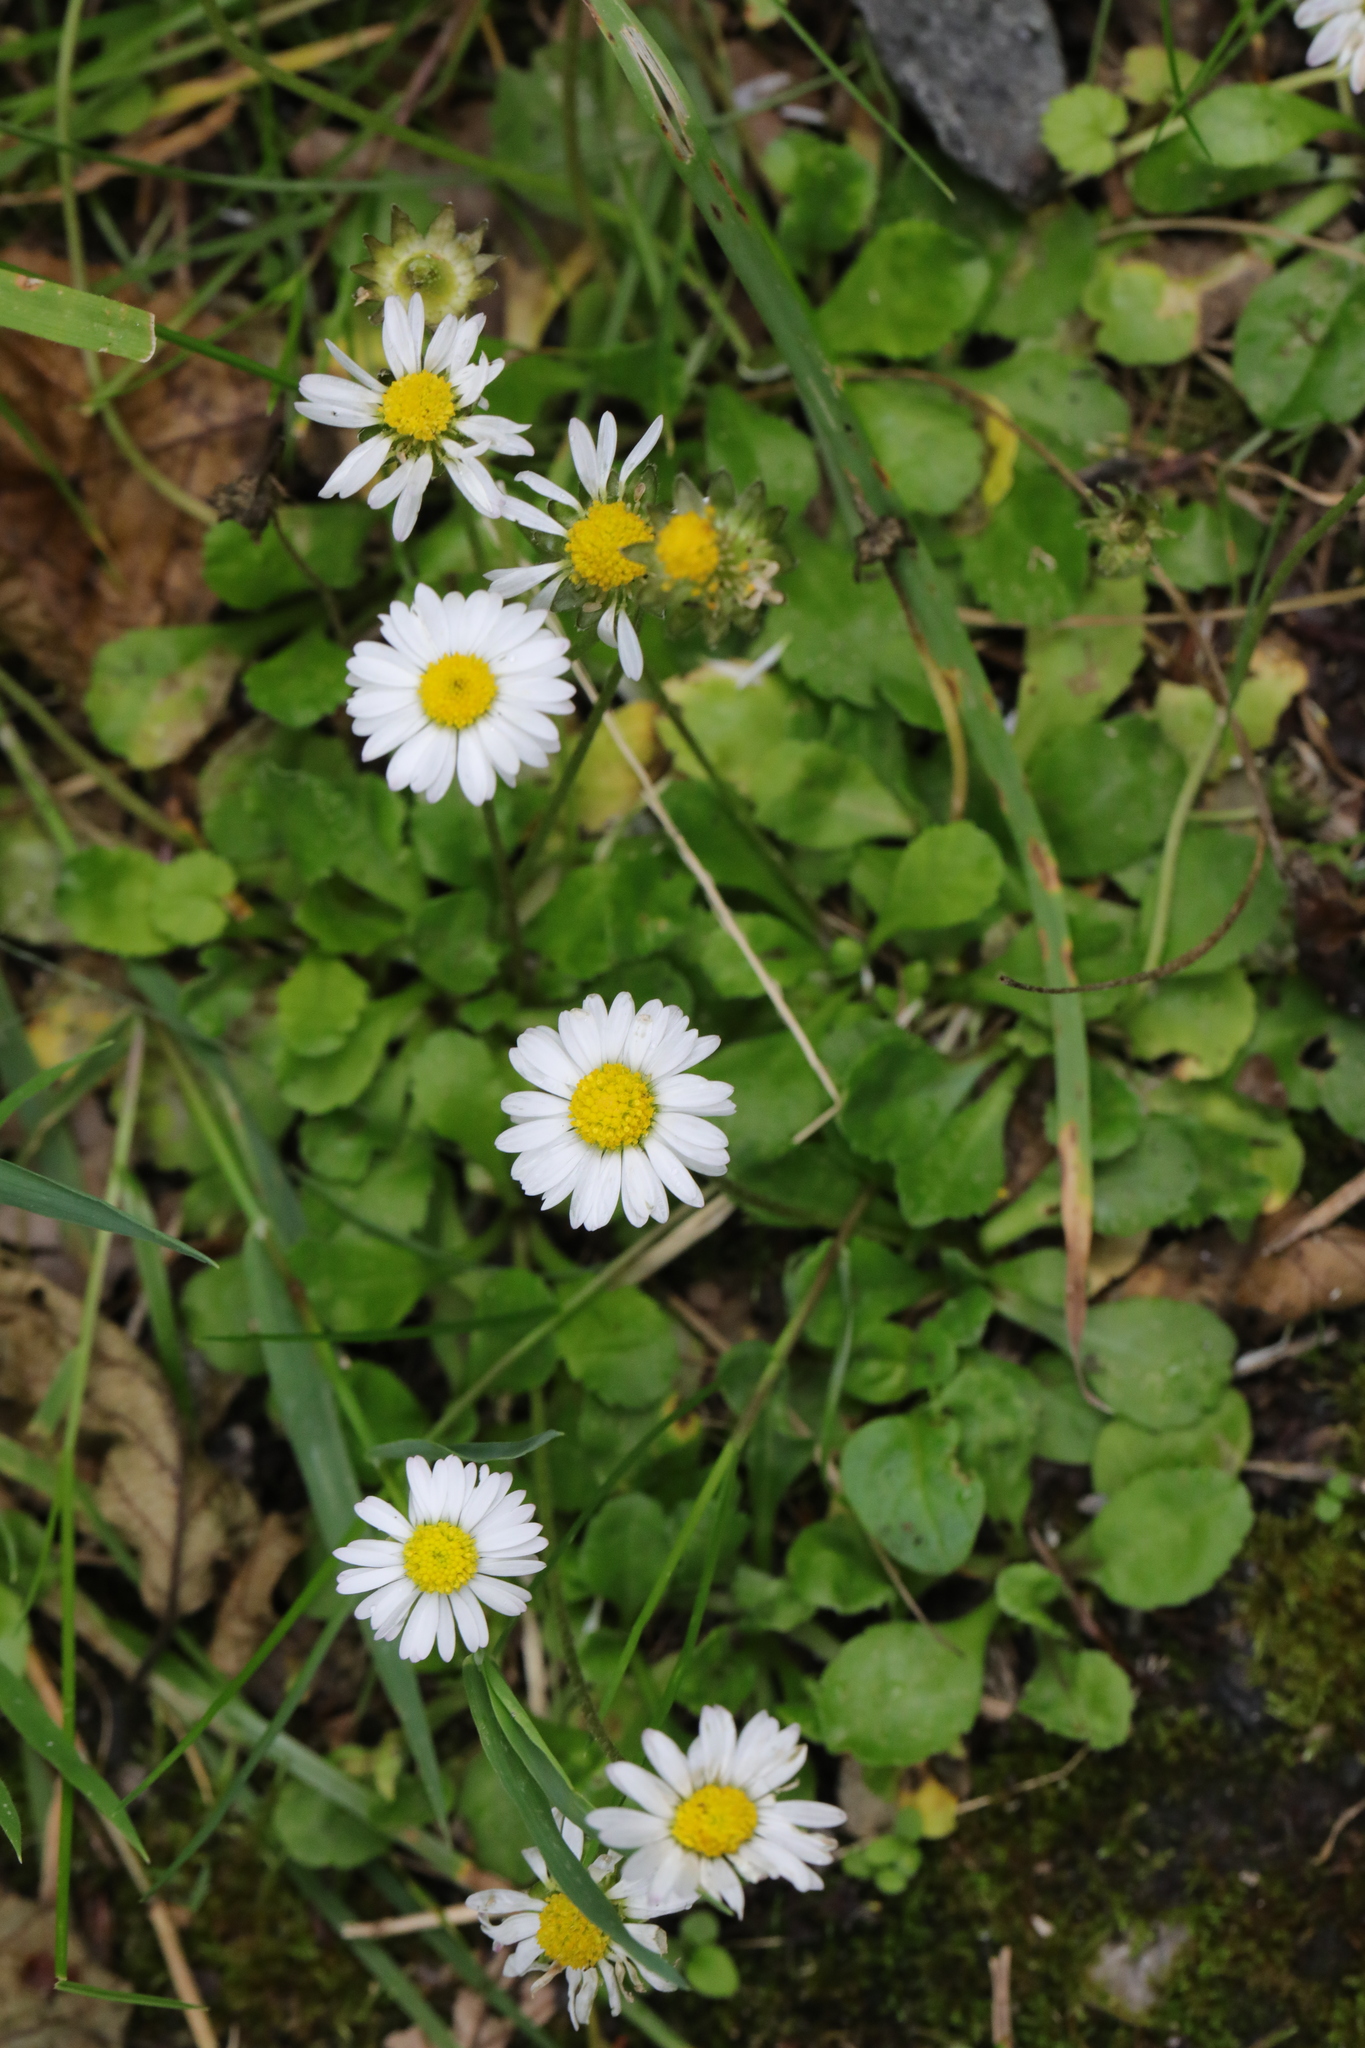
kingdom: Plantae
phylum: Tracheophyta
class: Magnoliopsida
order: Asterales
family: Asteraceae
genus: Bellis
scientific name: Bellis perennis
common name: Lawndaisy
